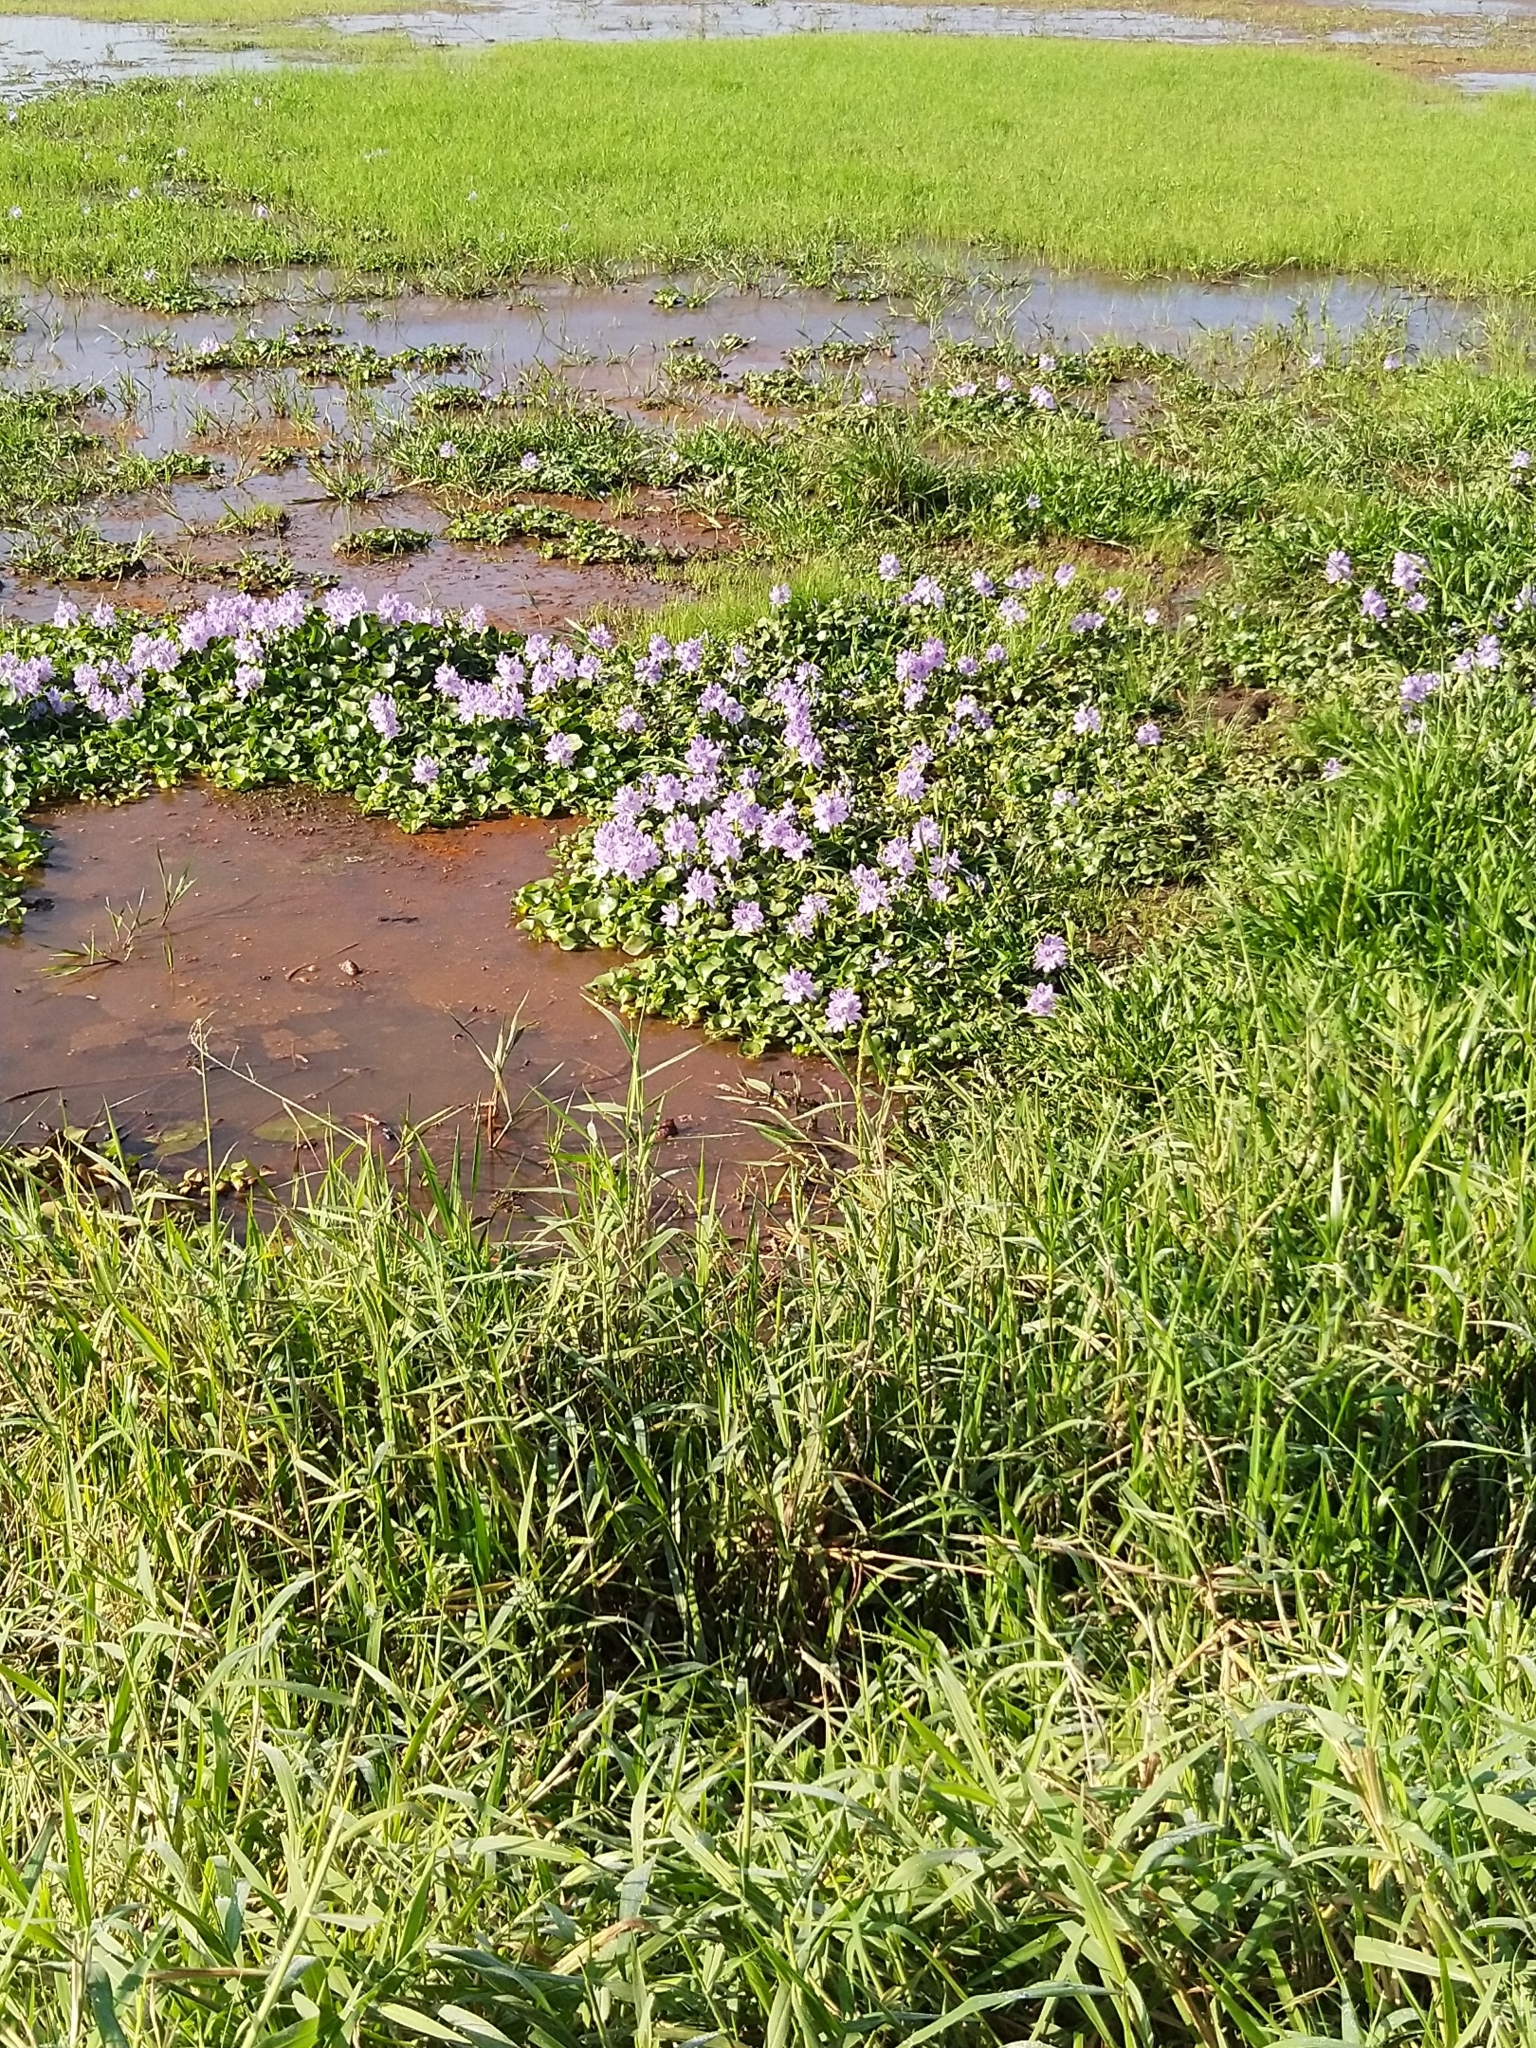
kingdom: Plantae
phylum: Tracheophyta
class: Liliopsida
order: Commelinales
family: Pontederiaceae
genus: Pontederia
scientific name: Pontederia crassipes
